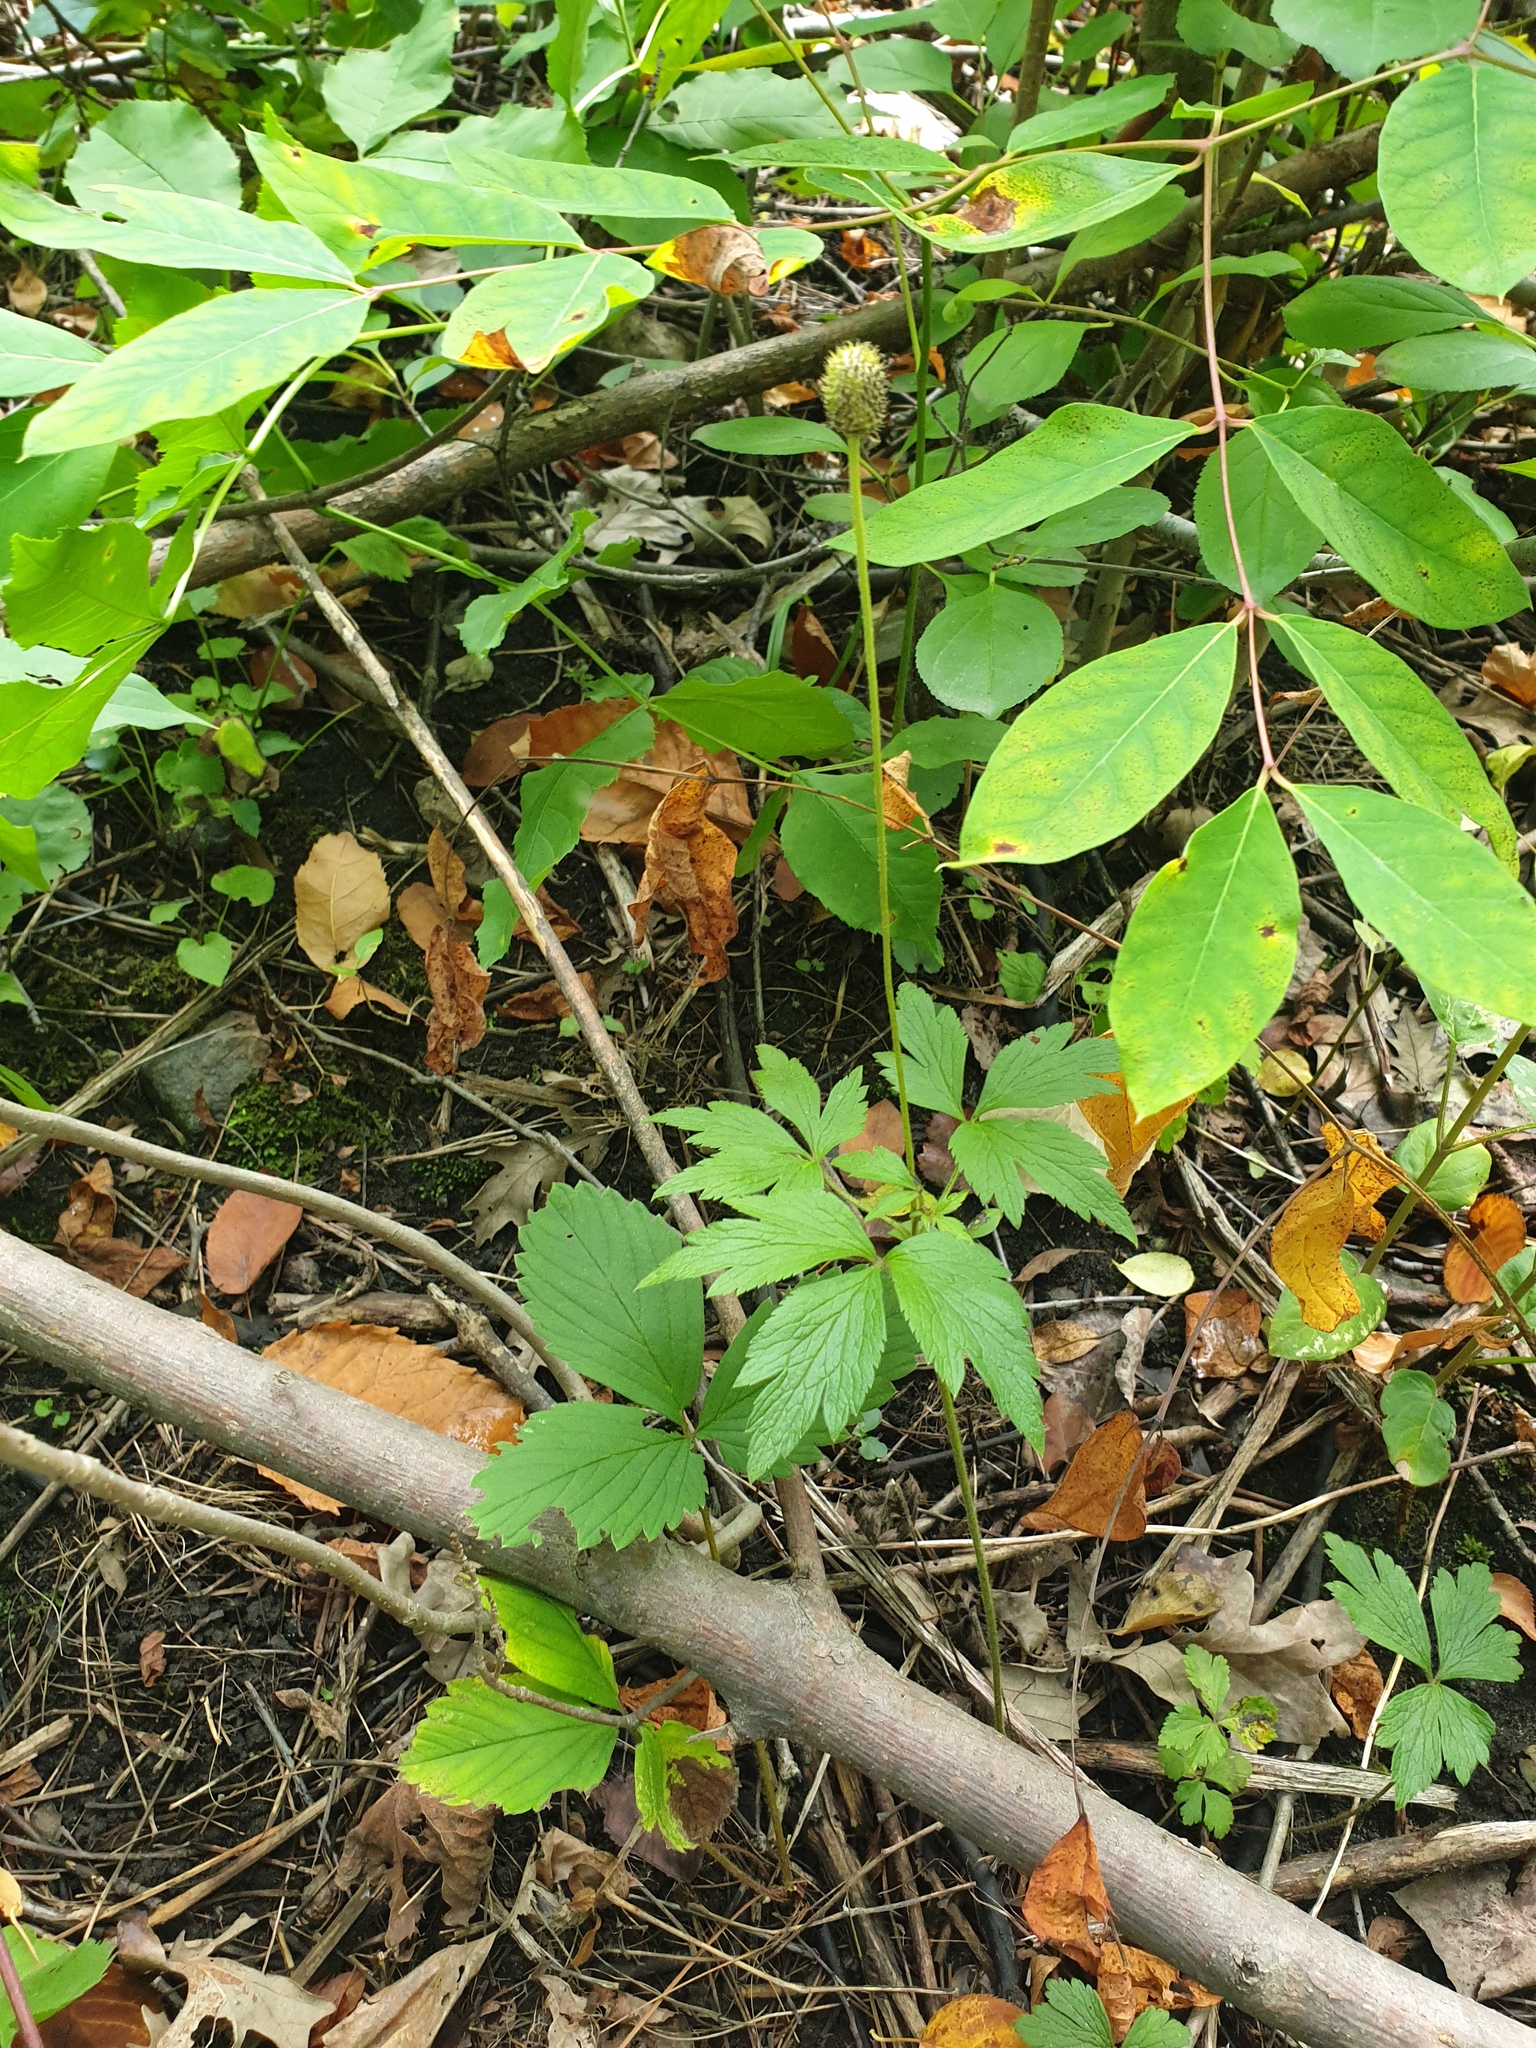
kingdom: Plantae
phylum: Tracheophyta
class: Magnoliopsida
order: Ranunculales
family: Ranunculaceae
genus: Anemone
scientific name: Anemone virginiana
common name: Tall anemone
